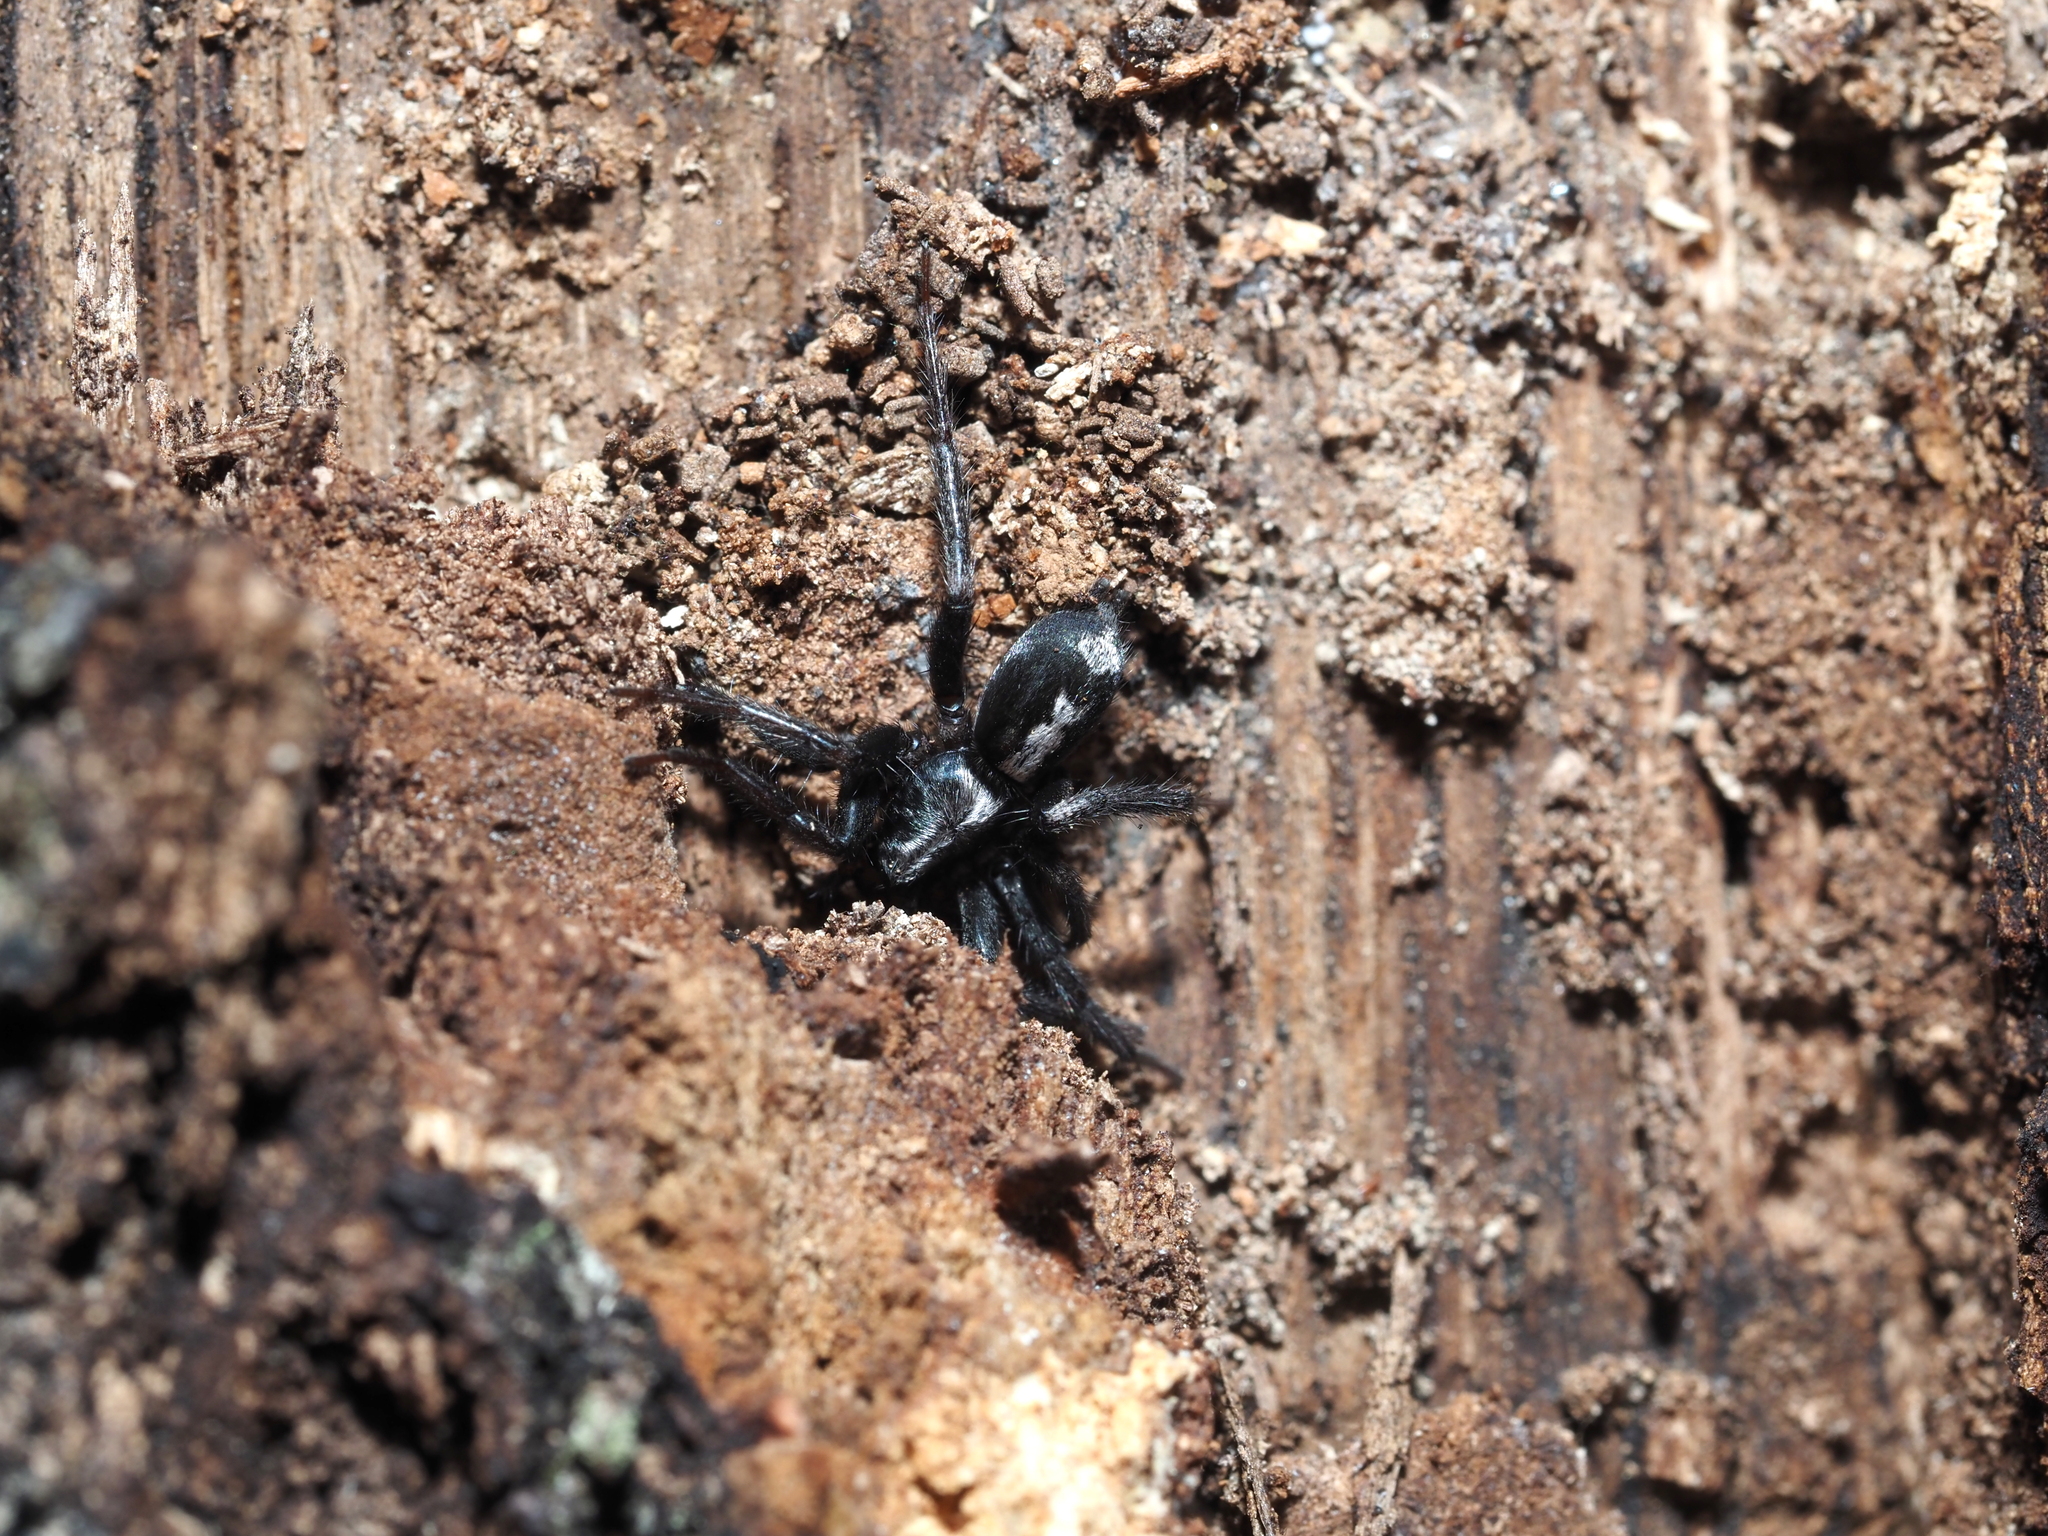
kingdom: Animalia
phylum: Arthropoda
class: Arachnida
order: Araneae
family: Gnaphosidae
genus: Herpyllus
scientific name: Herpyllus ecclesiasticus
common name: Eastern parson spider
